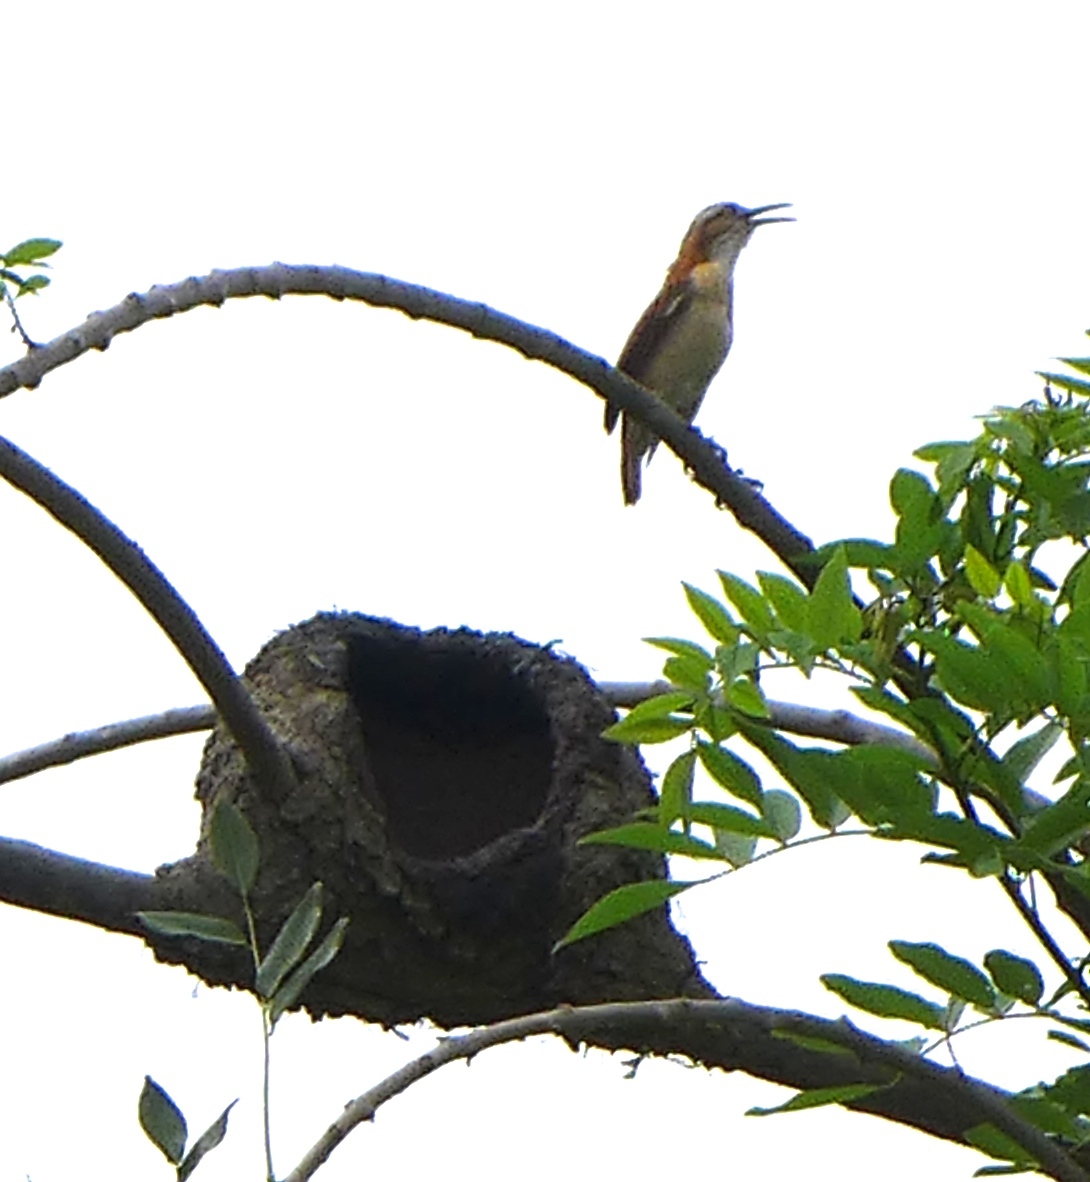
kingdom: Animalia
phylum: Chordata
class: Aves
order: Passeriformes
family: Furnariidae
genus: Furnarius
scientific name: Furnarius leucopus
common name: Pale-legged hornero
